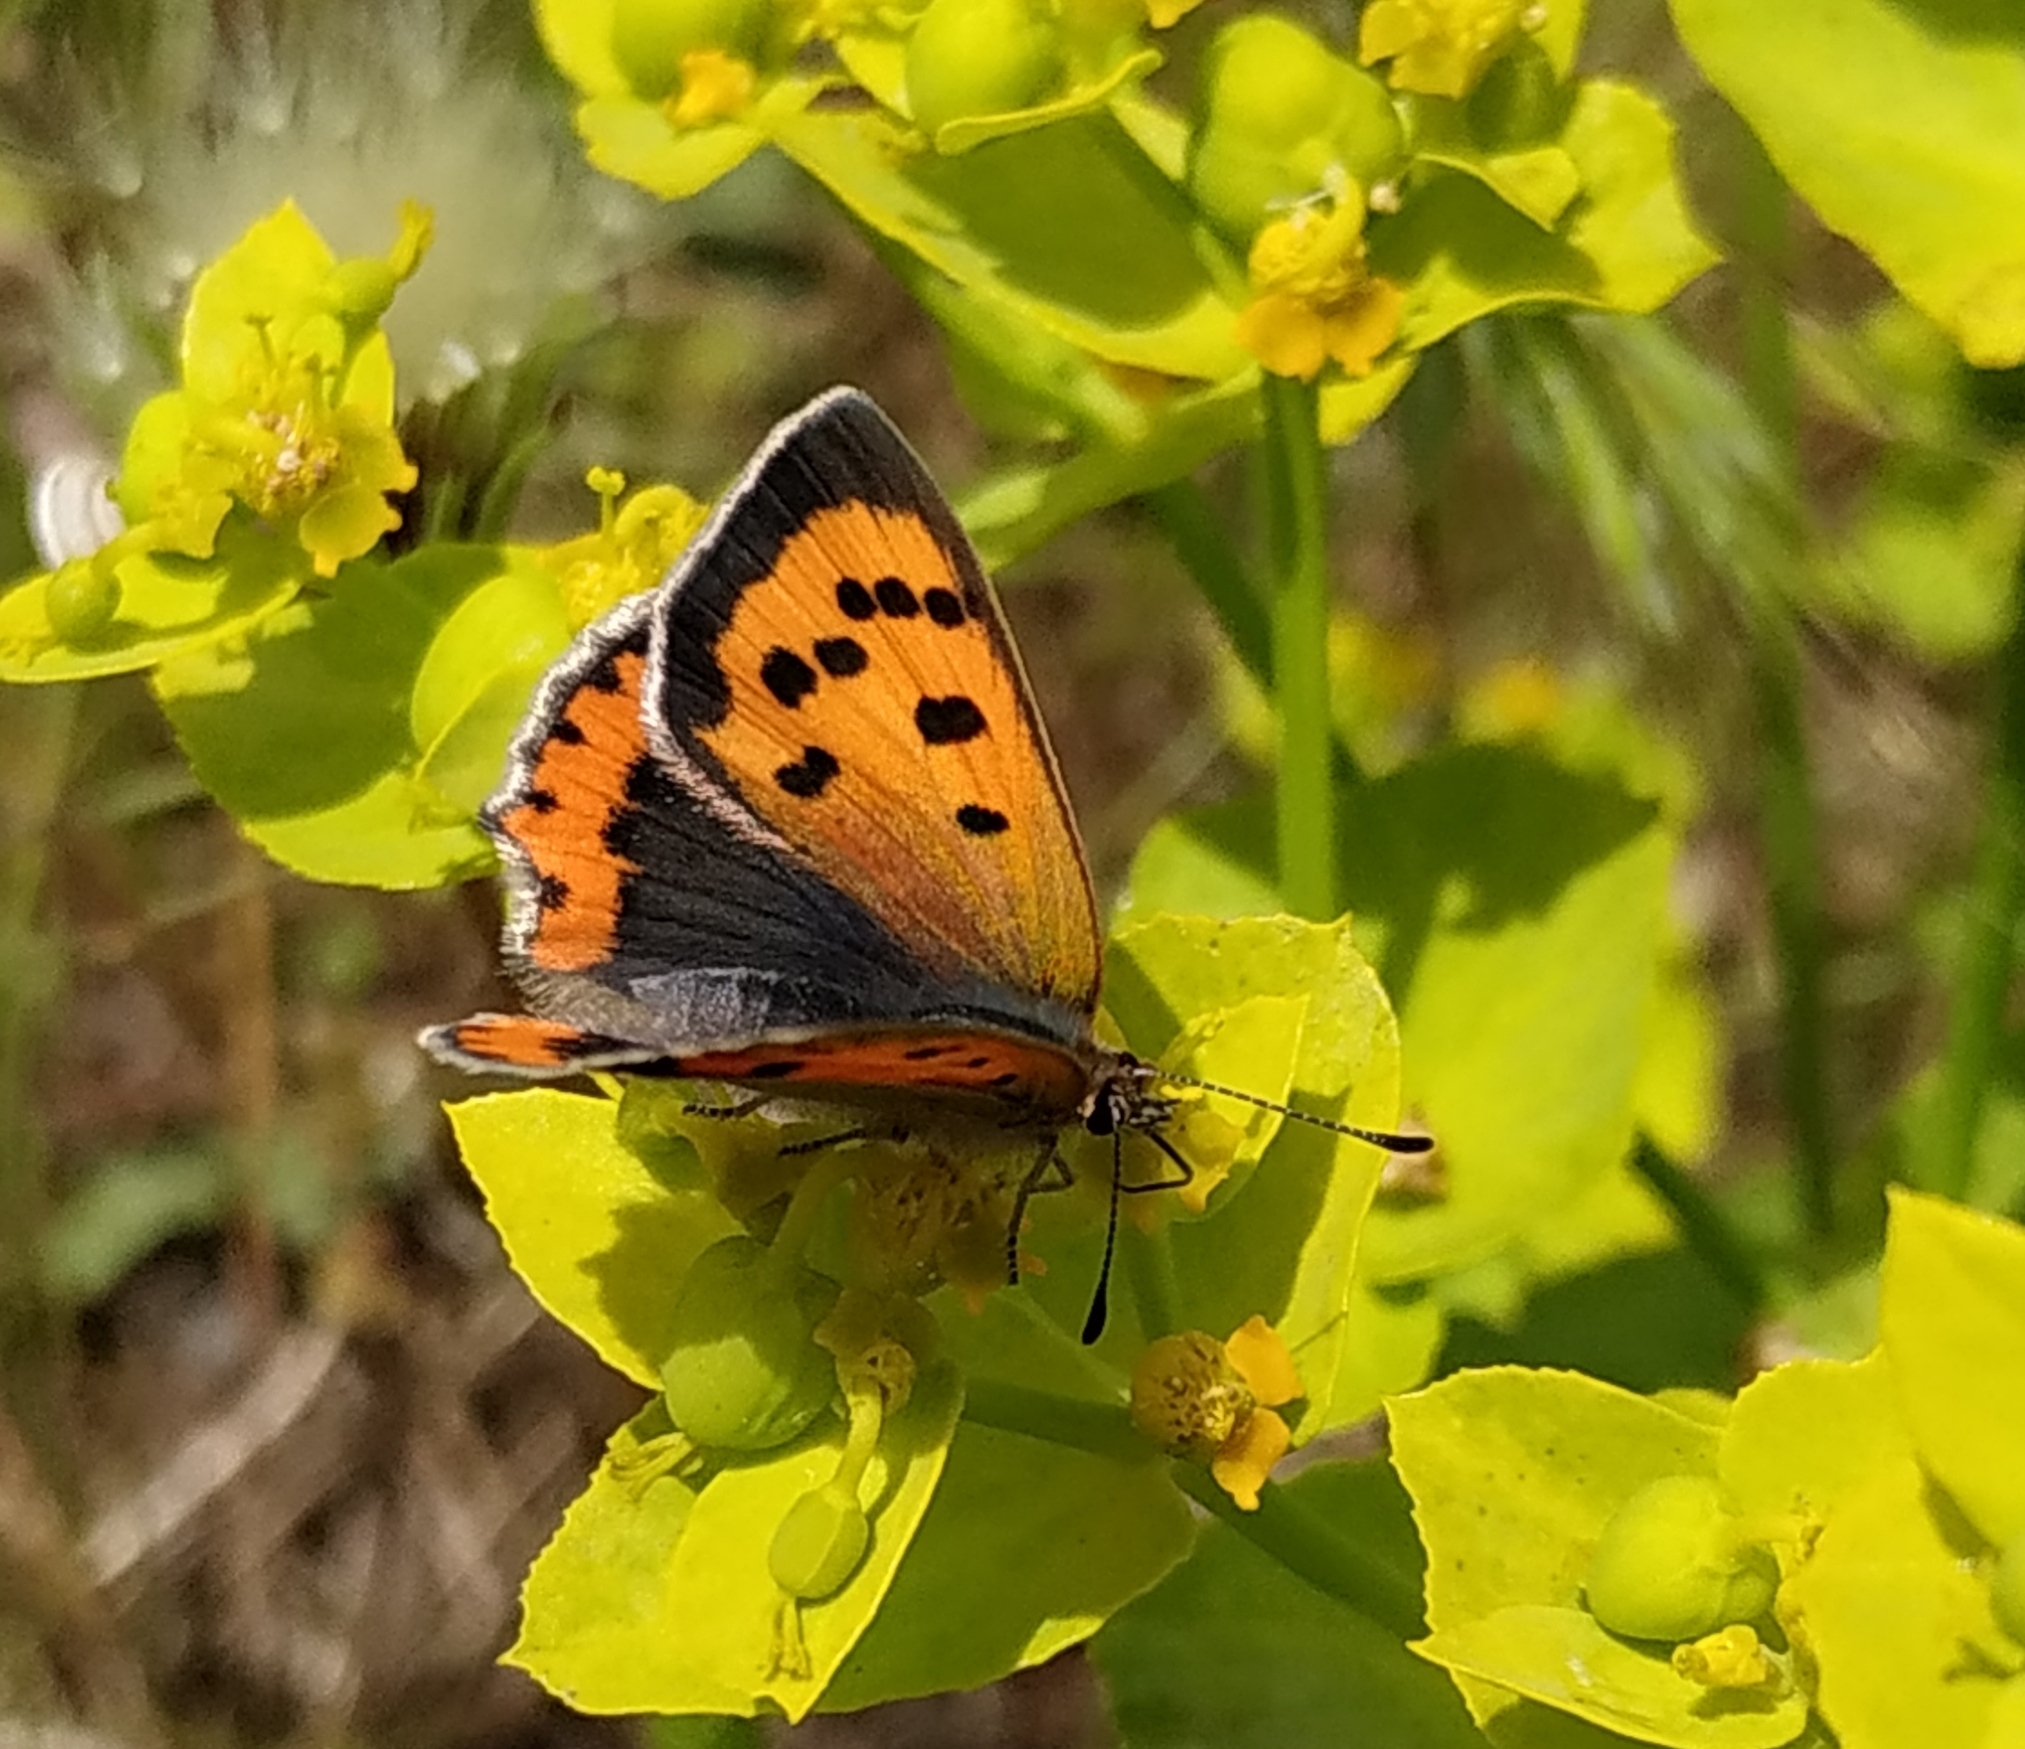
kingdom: Animalia
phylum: Arthropoda
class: Insecta
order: Lepidoptera
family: Lycaenidae
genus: Lycaena
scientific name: Lycaena phlaeas
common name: Small copper
